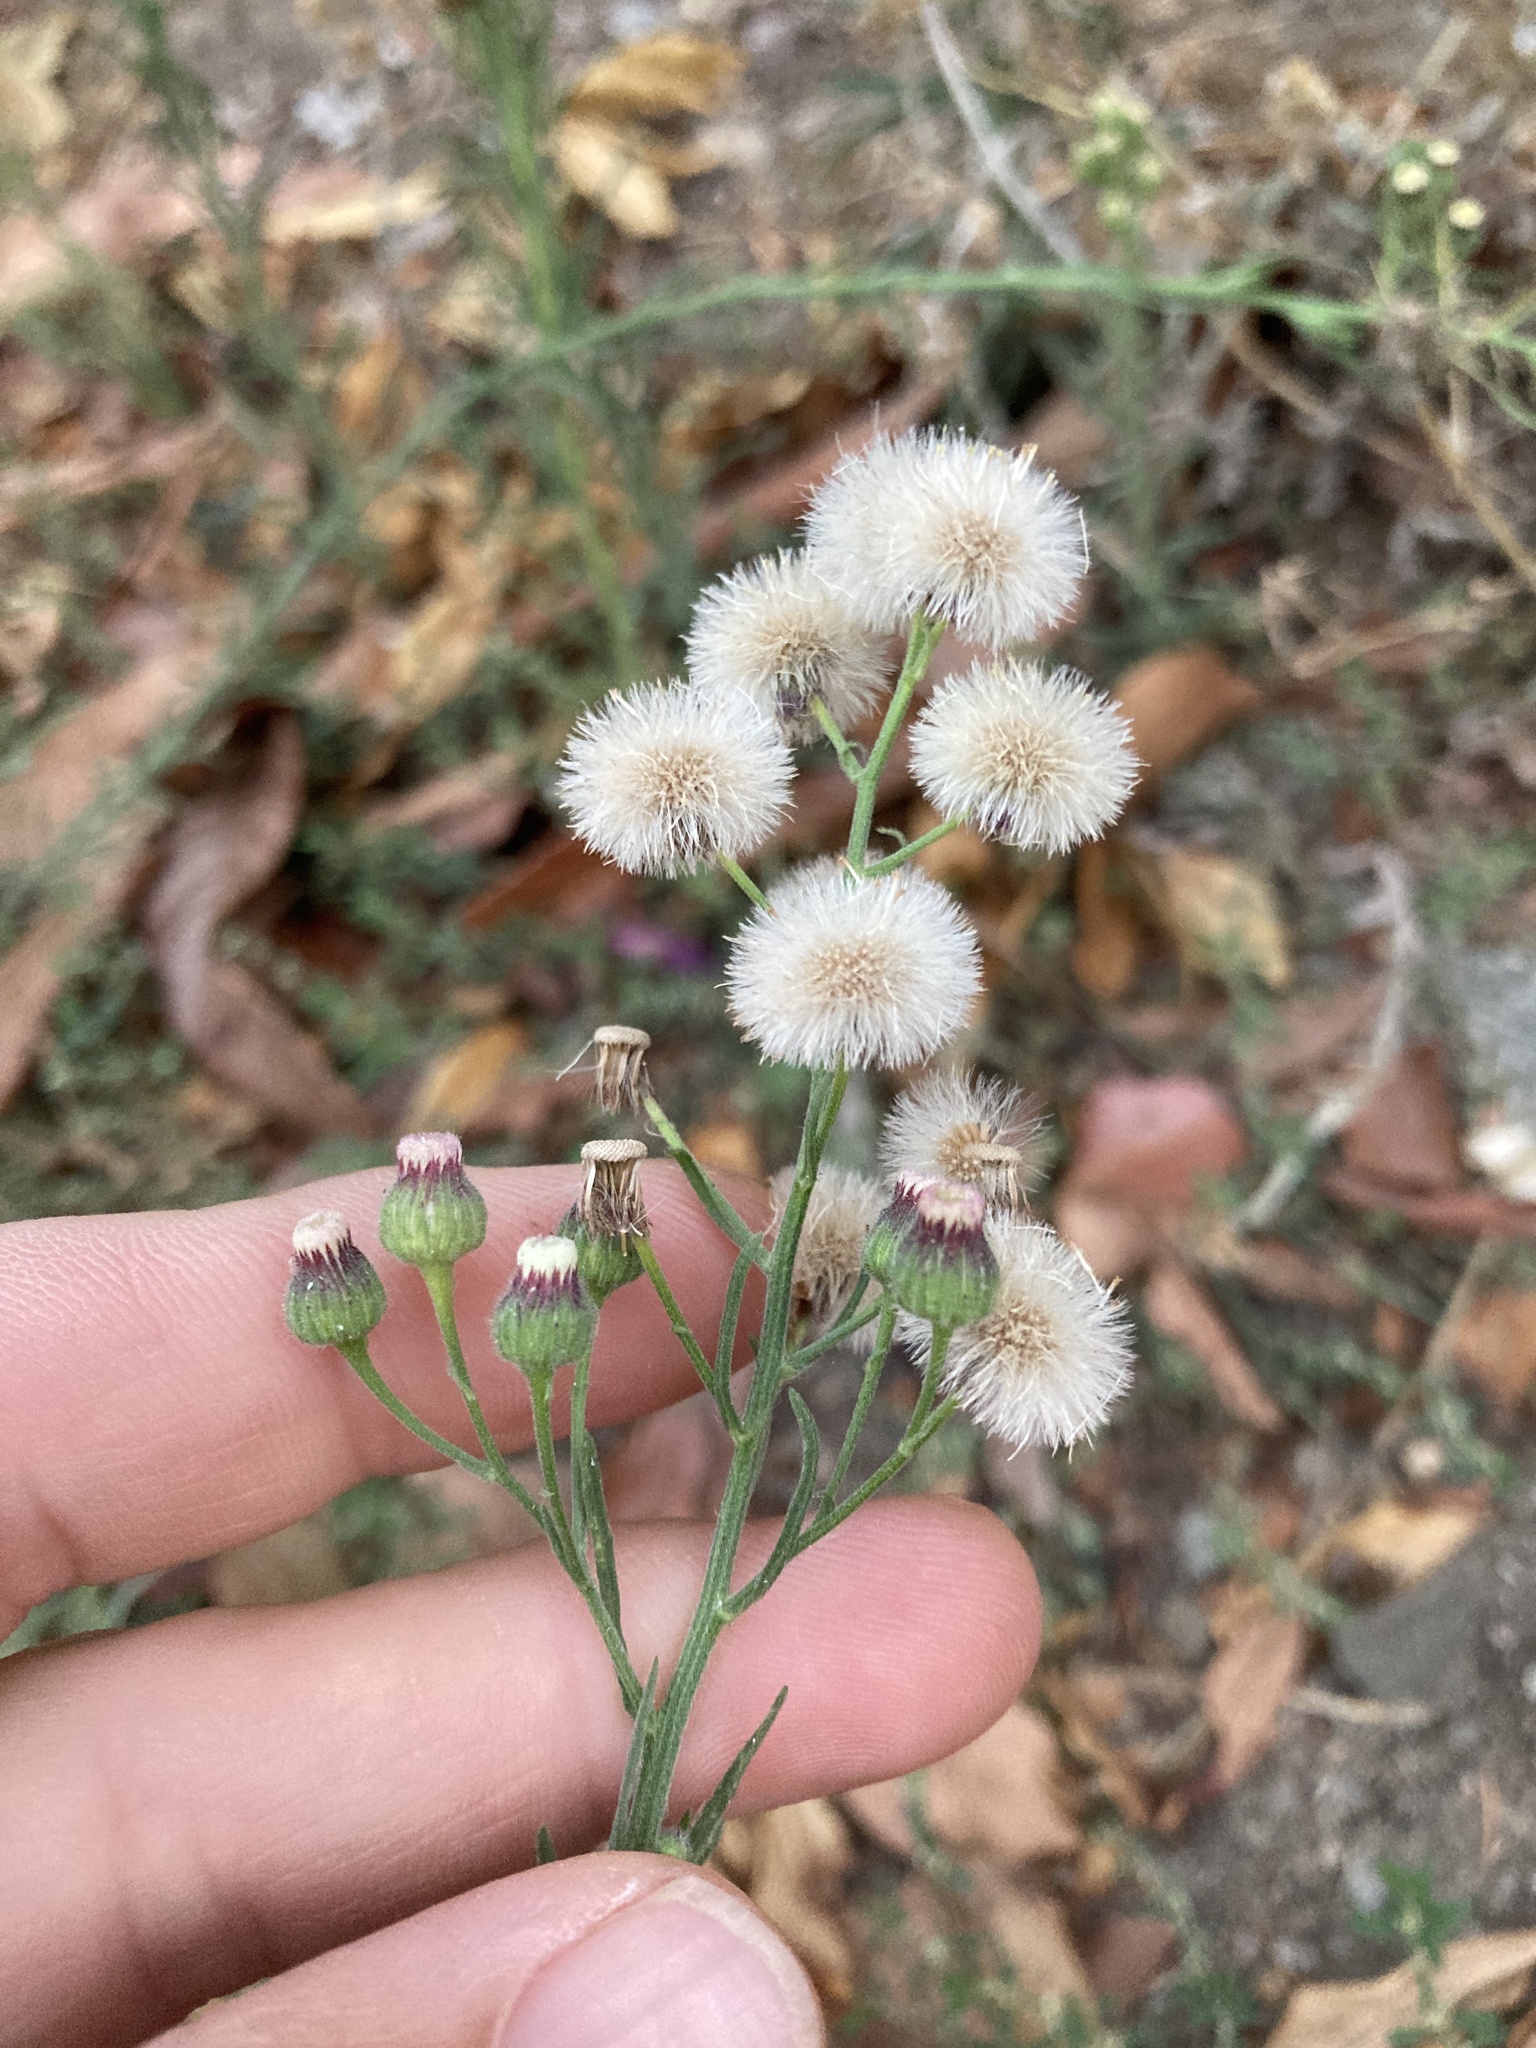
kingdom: Plantae
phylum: Tracheophyta
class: Magnoliopsida
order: Asterales
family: Asteraceae
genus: Erigeron
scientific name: Erigeron bonariensis
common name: Argentine fleabane
